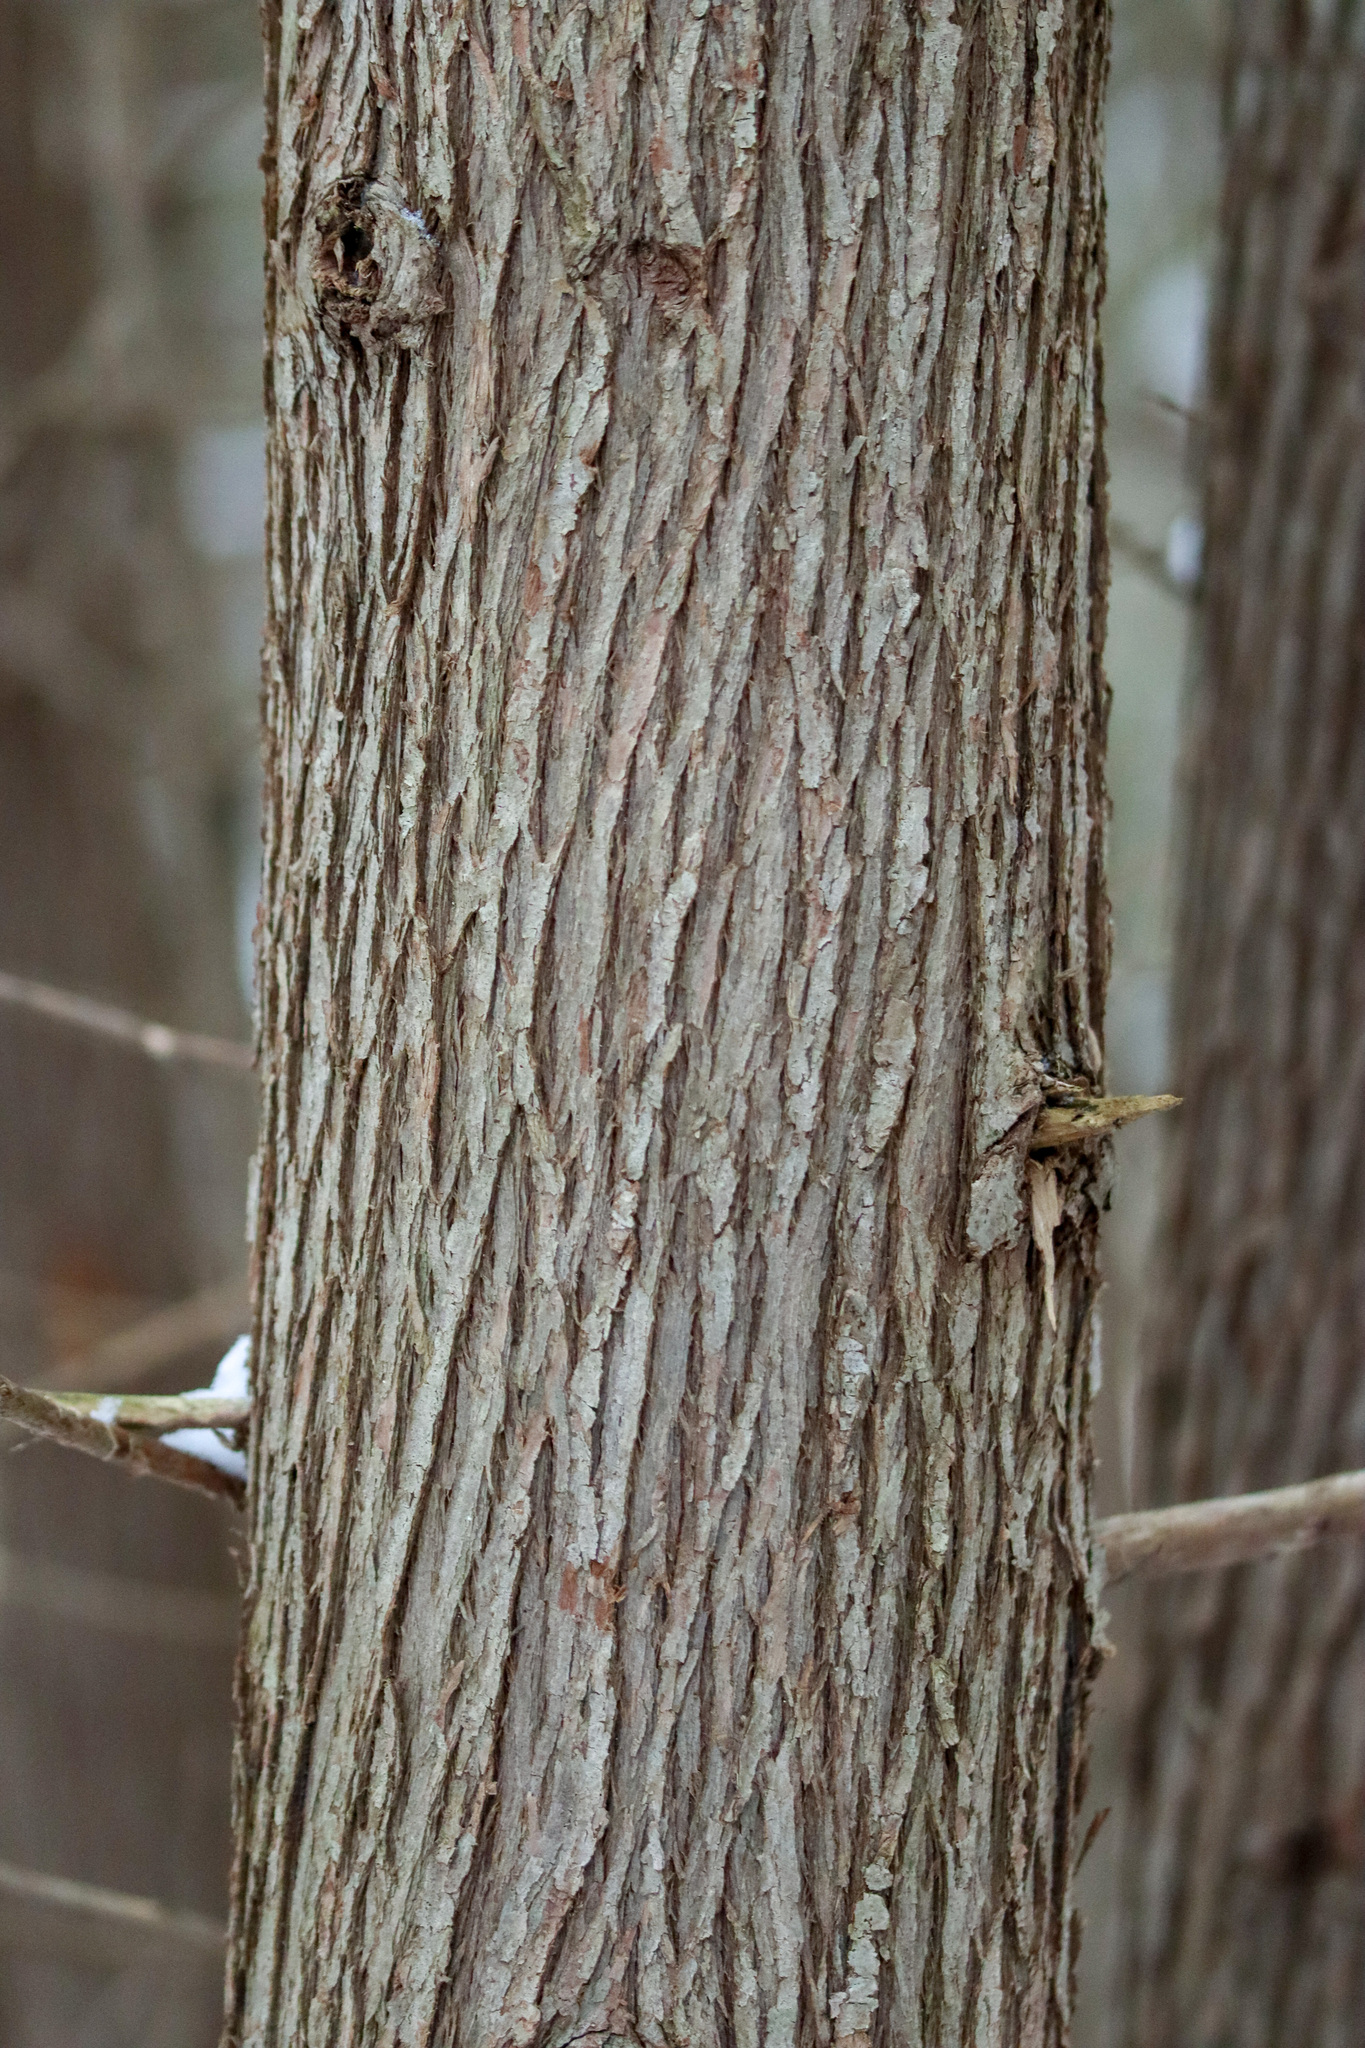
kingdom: Plantae
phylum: Tracheophyta
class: Pinopsida
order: Pinales
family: Cupressaceae
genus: Thuja
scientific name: Thuja occidentalis
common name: Northern white-cedar
